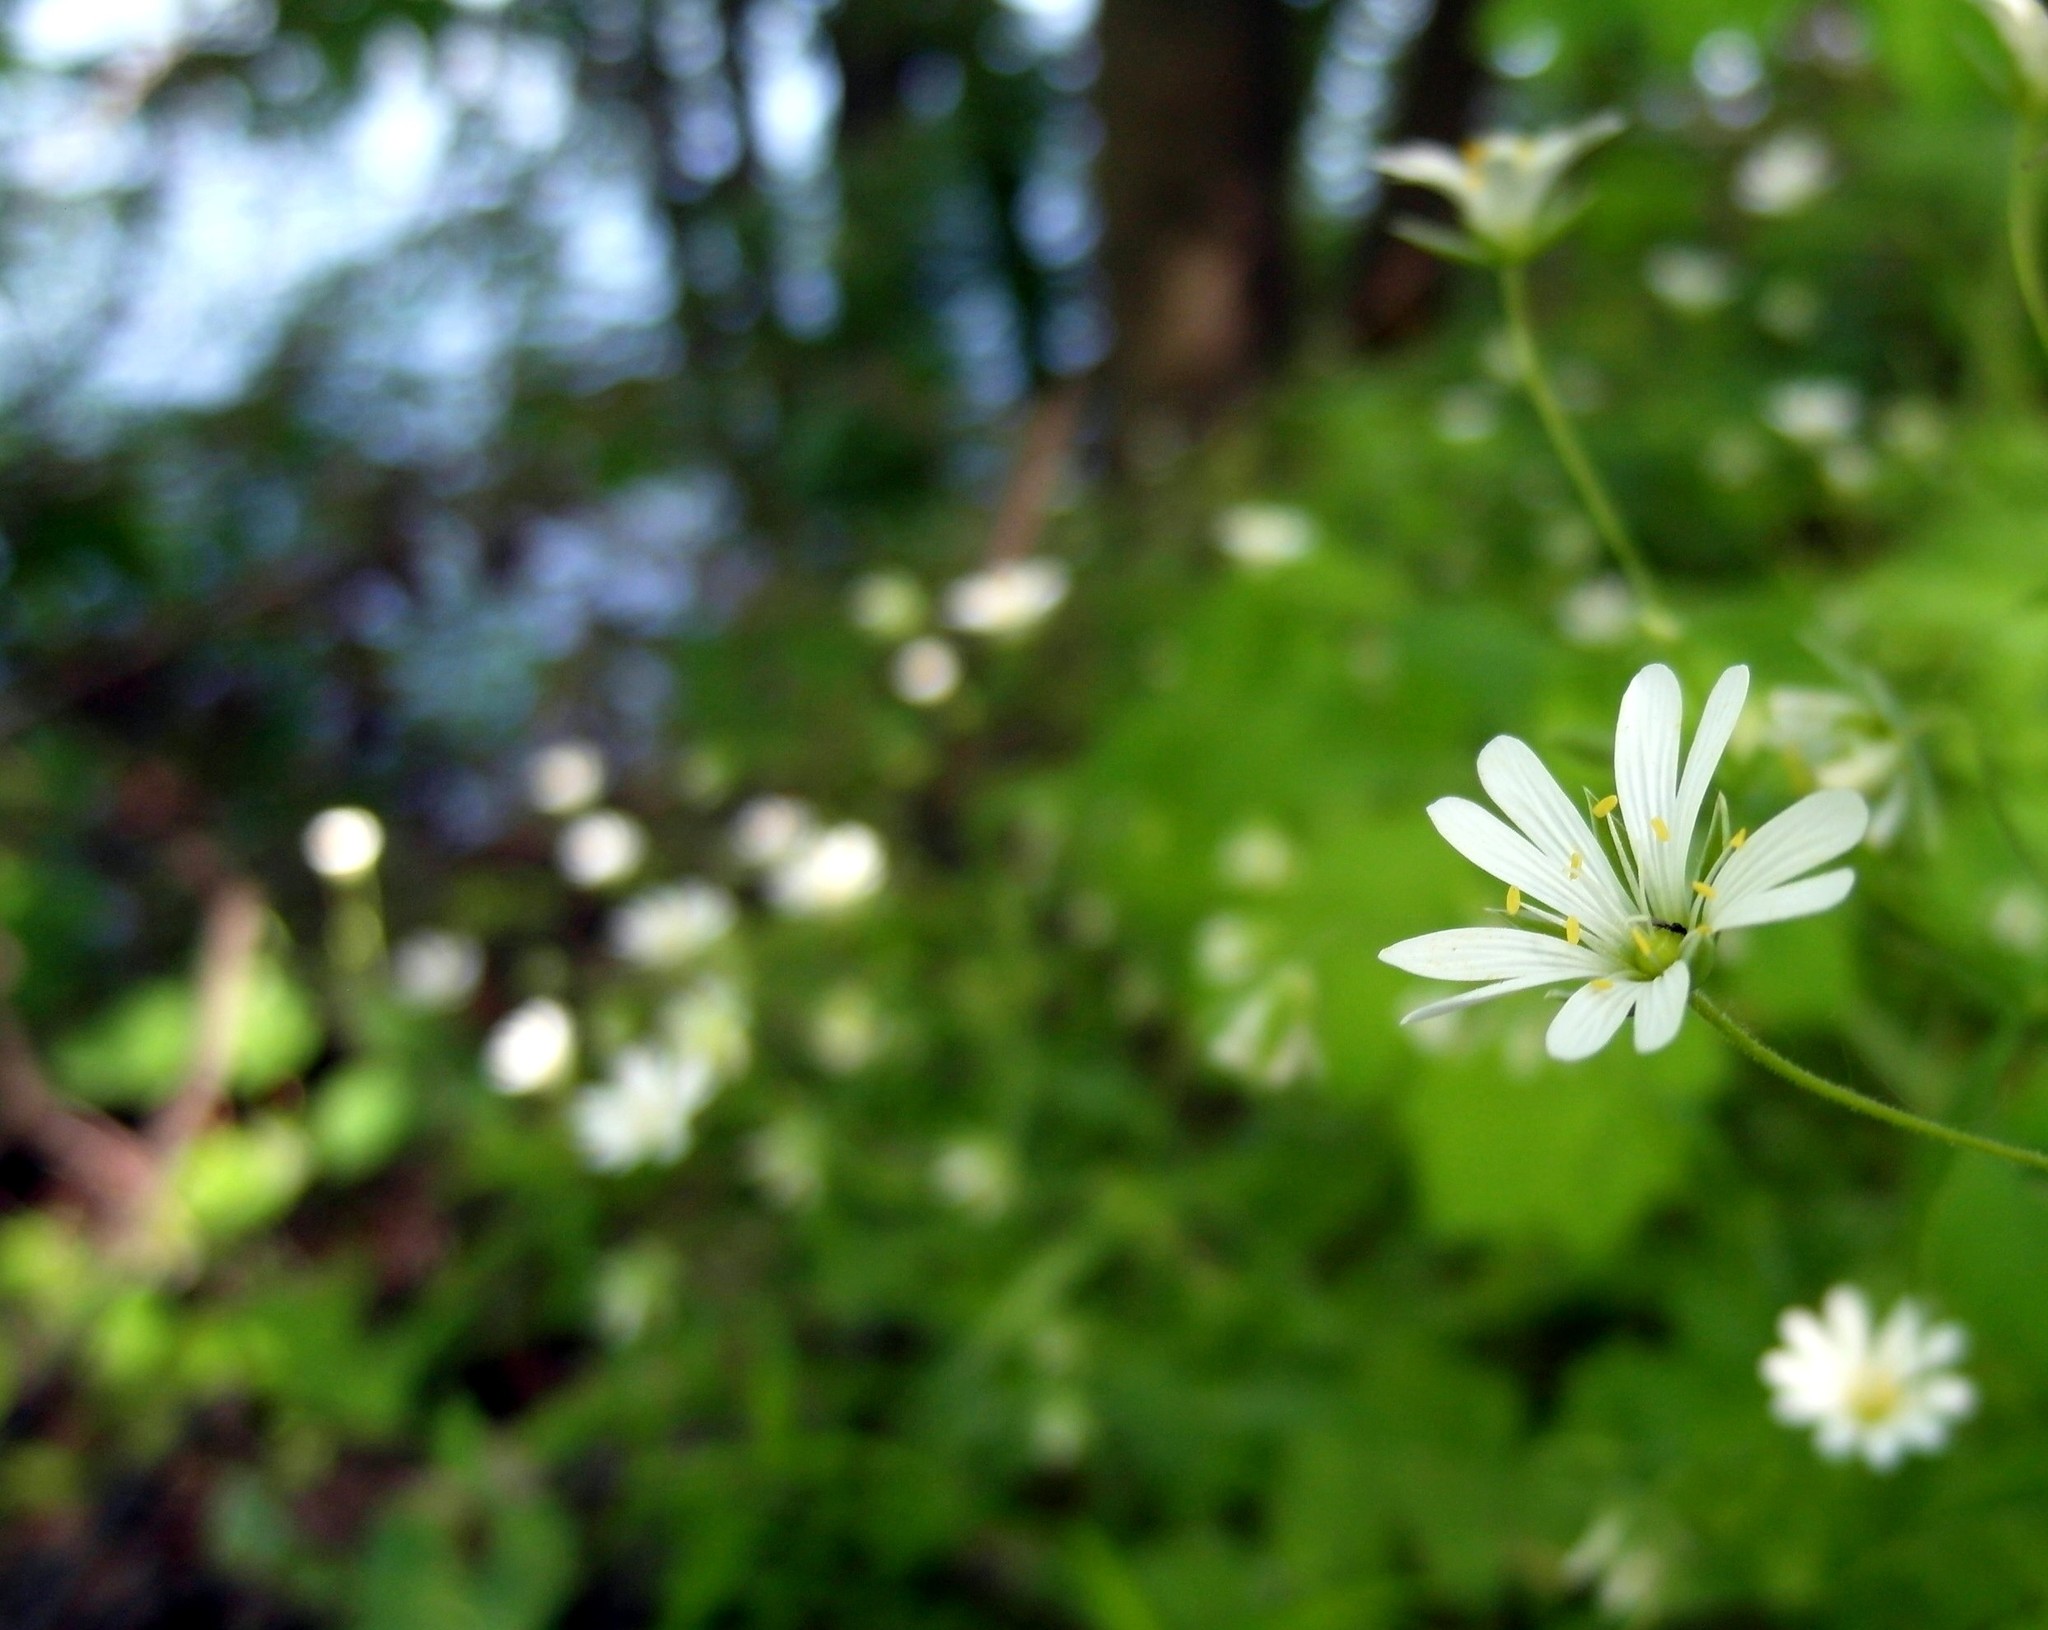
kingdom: Plantae
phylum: Tracheophyta
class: Magnoliopsida
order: Caryophyllales
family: Caryophyllaceae
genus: Rabelera
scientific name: Rabelera holostea
